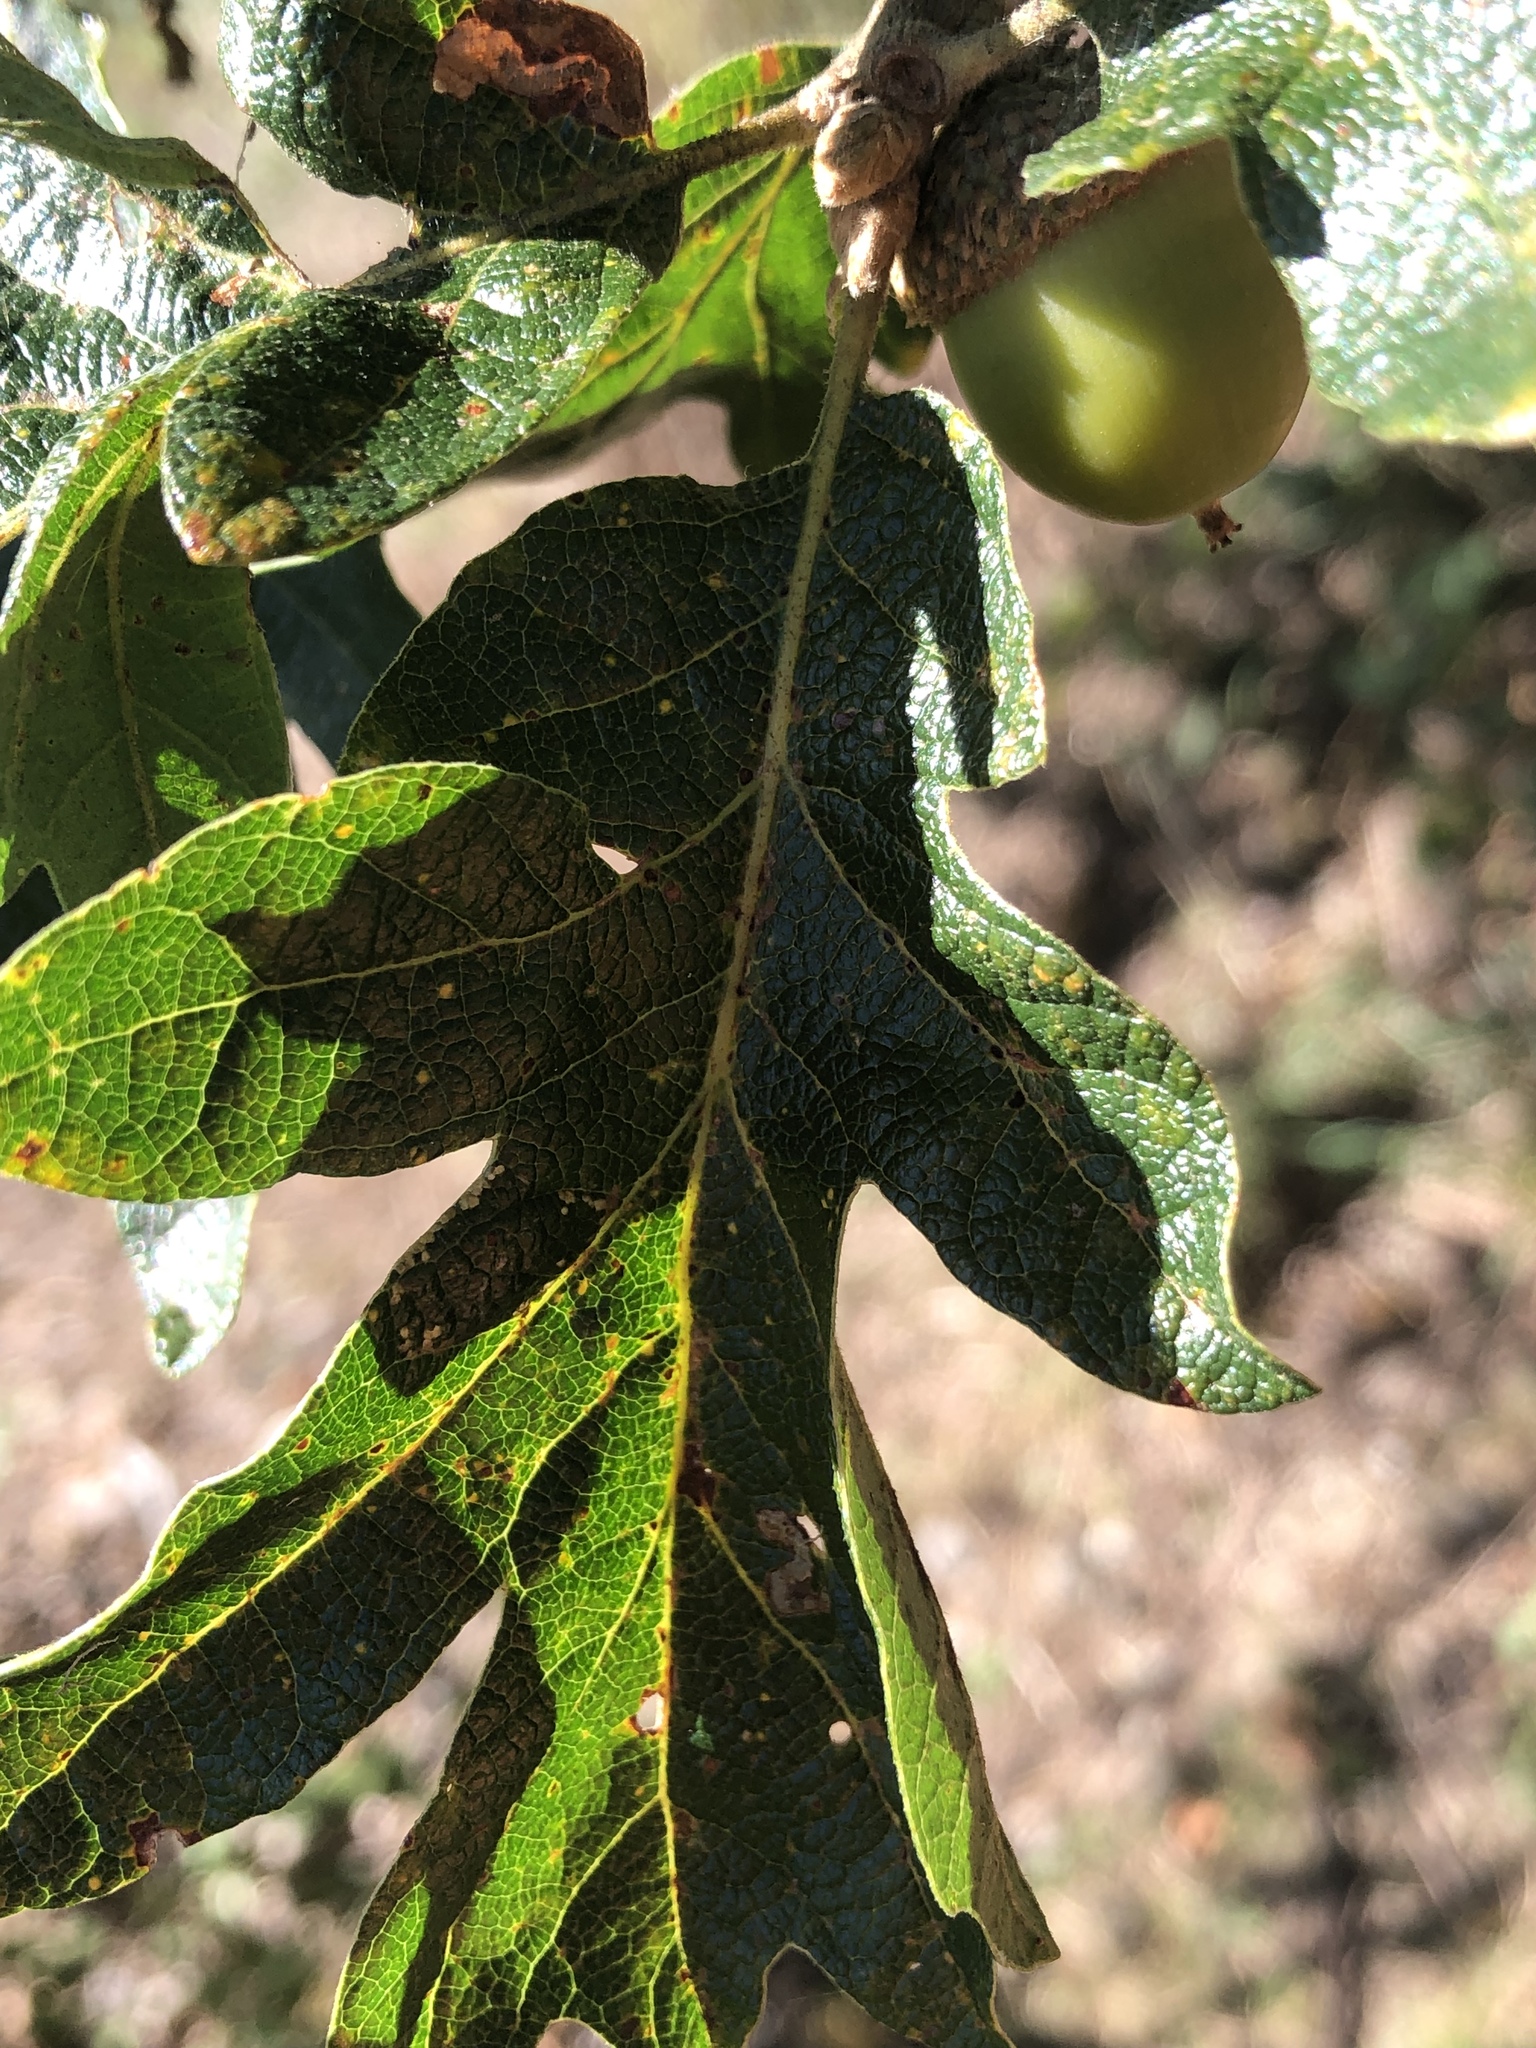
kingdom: Plantae
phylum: Tracheophyta
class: Magnoliopsida
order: Fagales
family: Fagaceae
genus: Quercus
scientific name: Quercus garryana
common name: Garry oak
